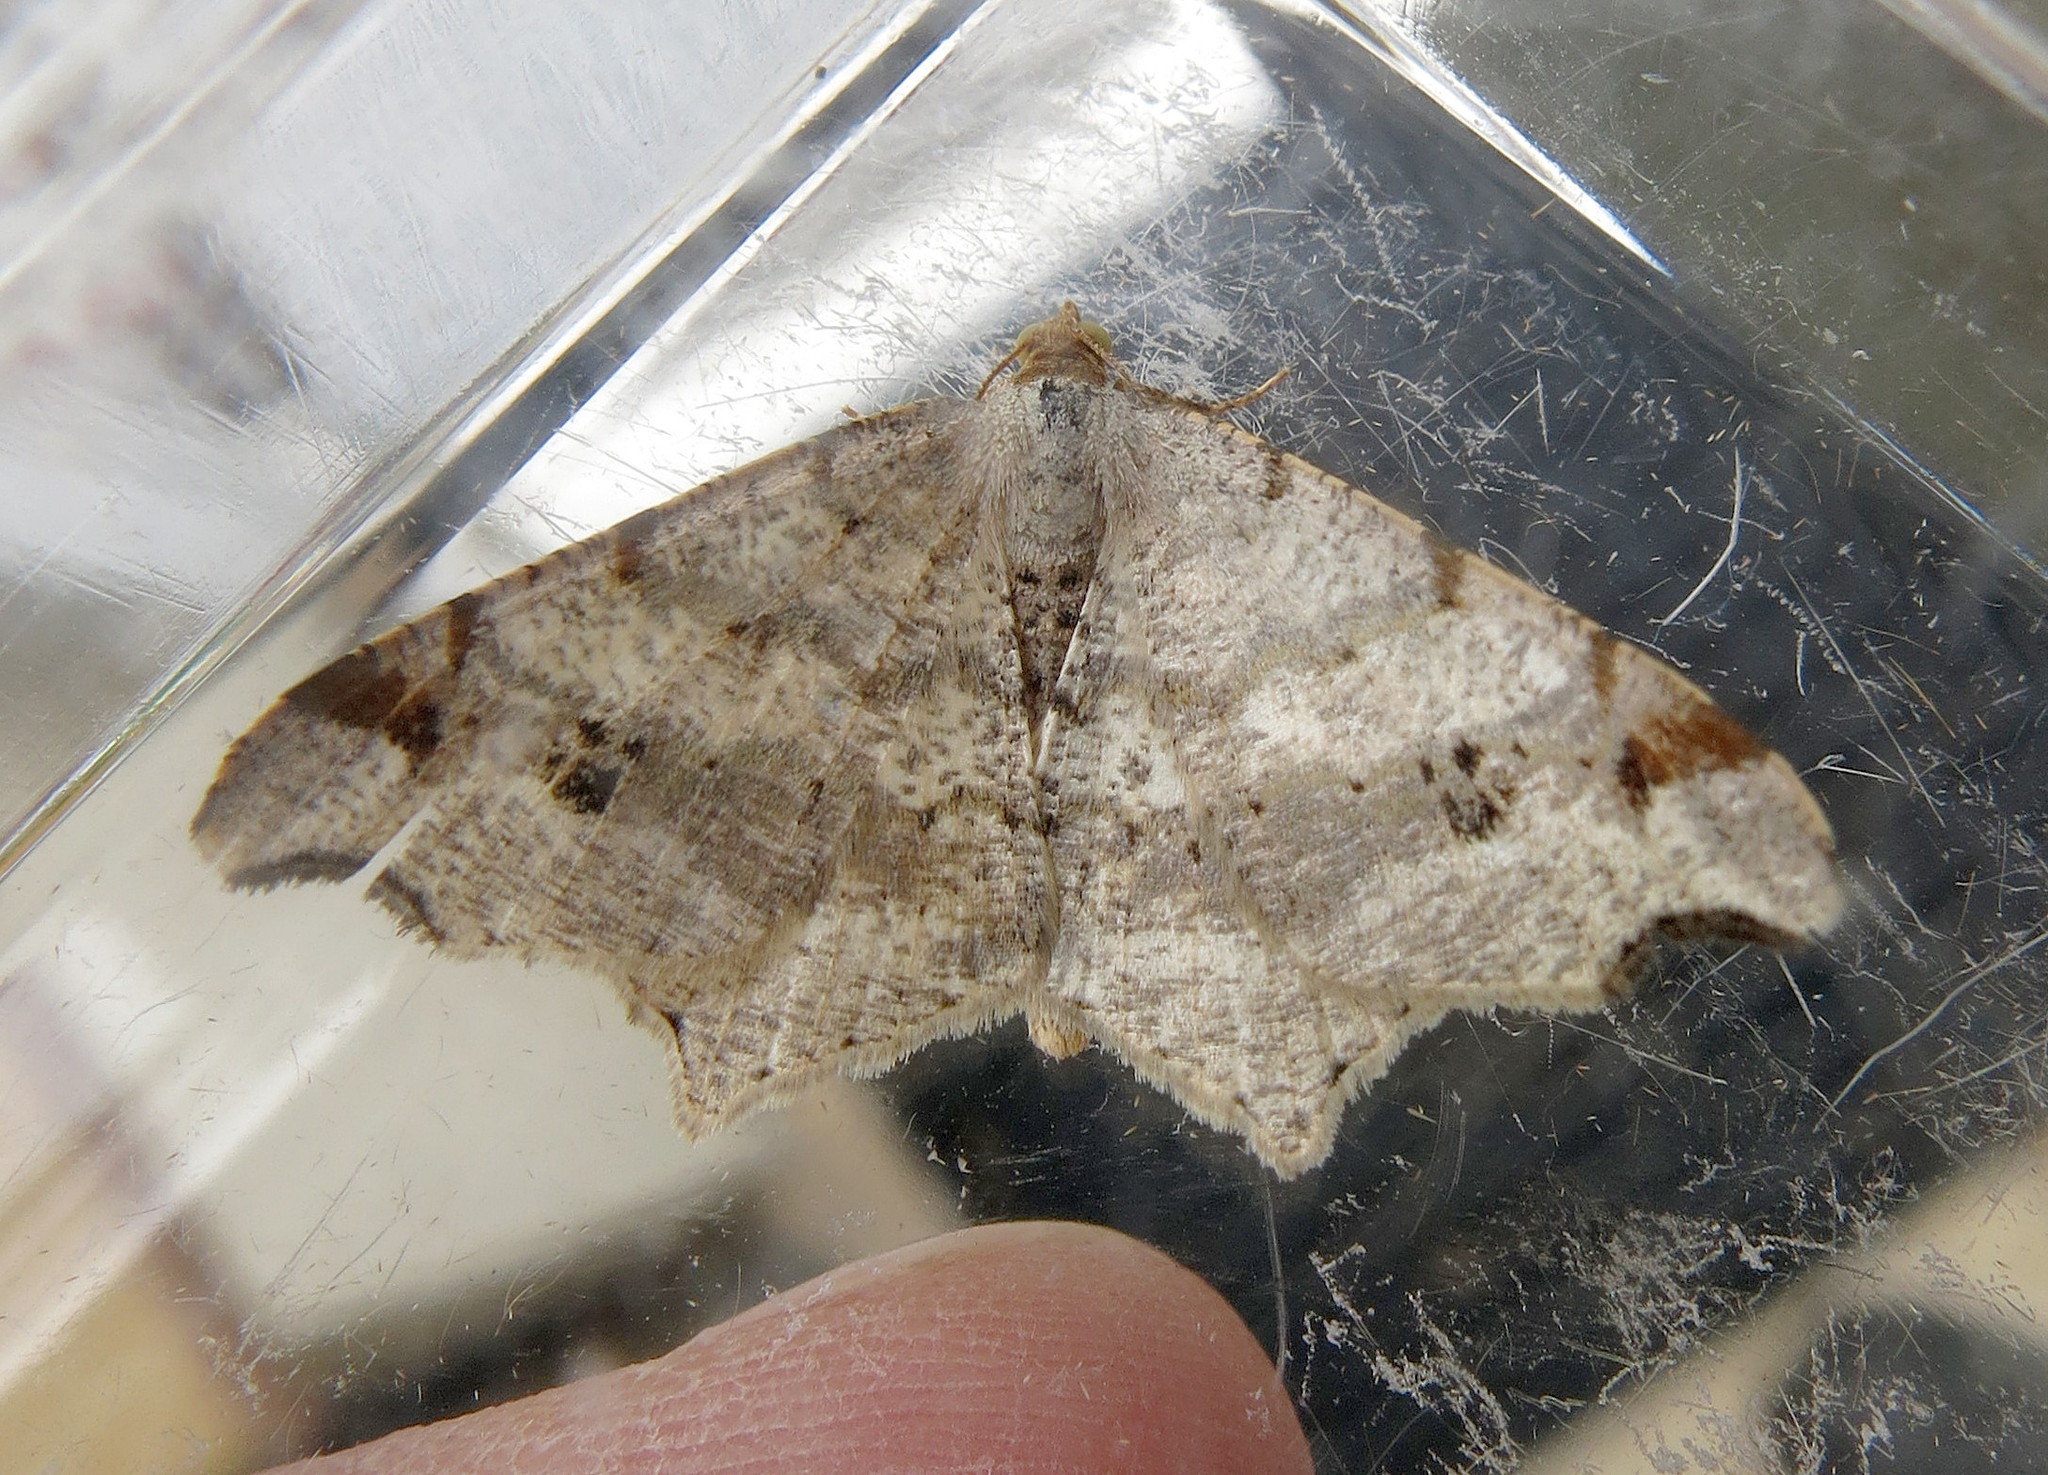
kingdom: Animalia
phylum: Arthropoda
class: Insecta
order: Lepidoptera
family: Geometridae
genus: Macaria
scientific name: Macaria alternata
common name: Sharp-angled peacock
